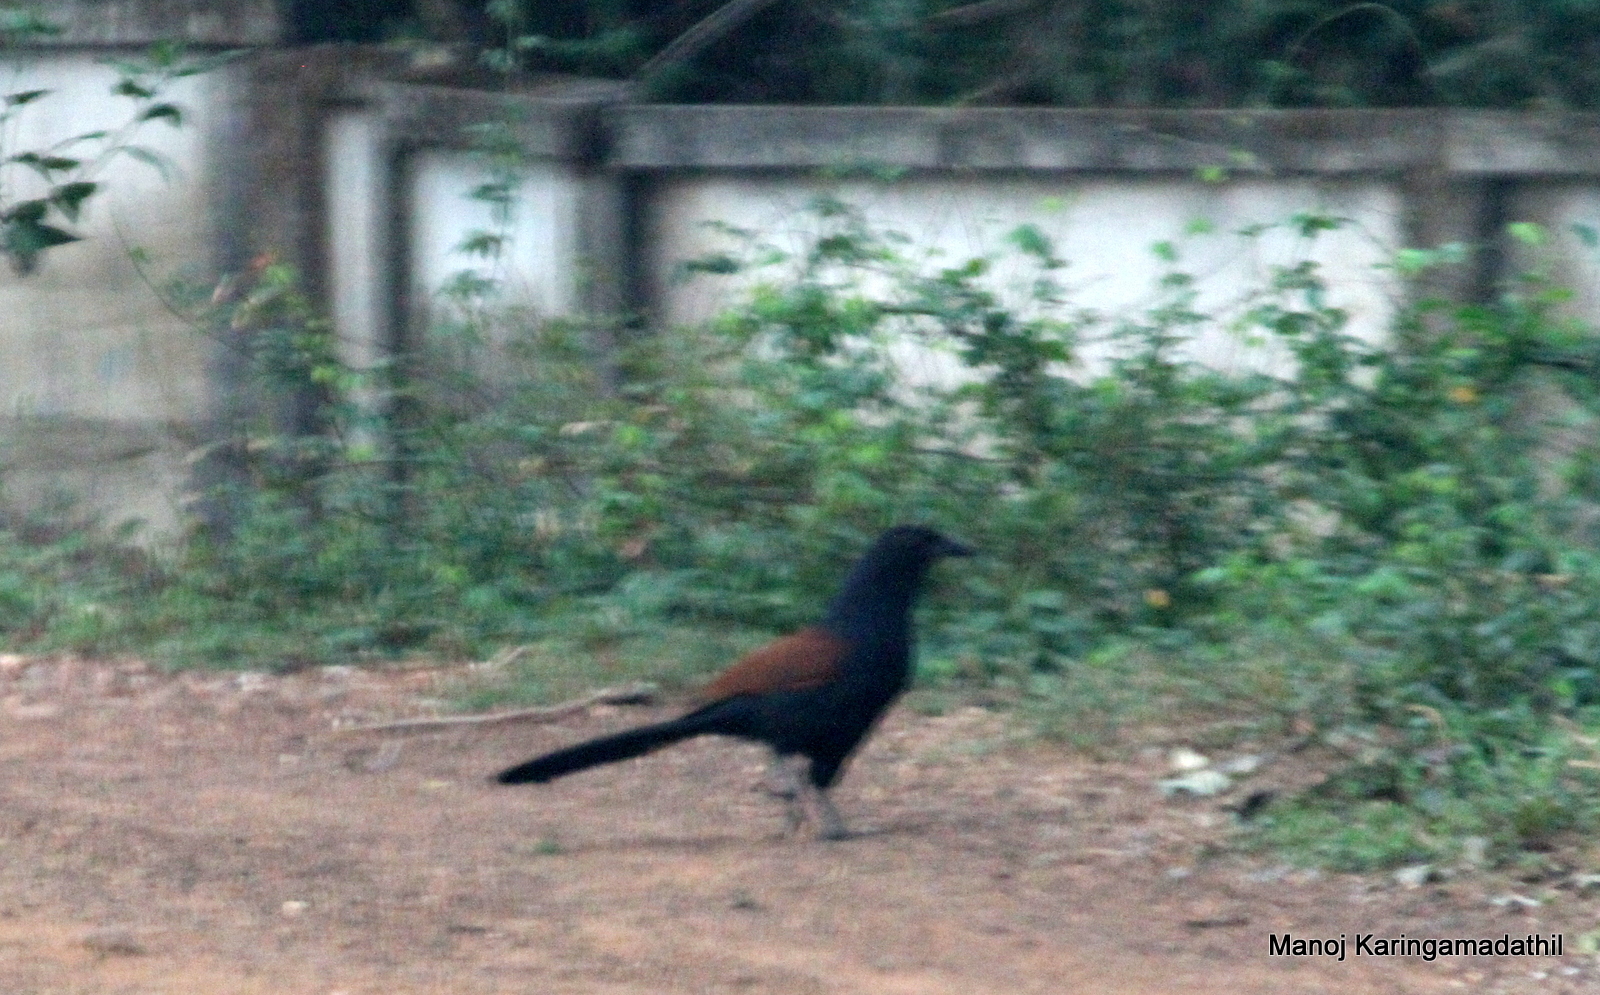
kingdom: Animalia
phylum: Chordata
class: Aves
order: Cuculiformes
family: Cuculidae
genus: Centropus
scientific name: Centropus sinensis
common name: Greater coucal
